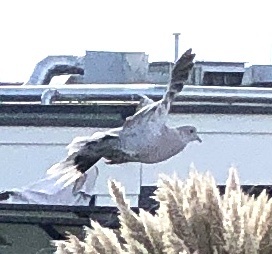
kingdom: Animalia
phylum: Chordata
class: Aves
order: Columbiformes
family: Columbidae
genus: Streptopelia
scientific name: Streptopelia decaocto
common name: Eurasian collared dove
